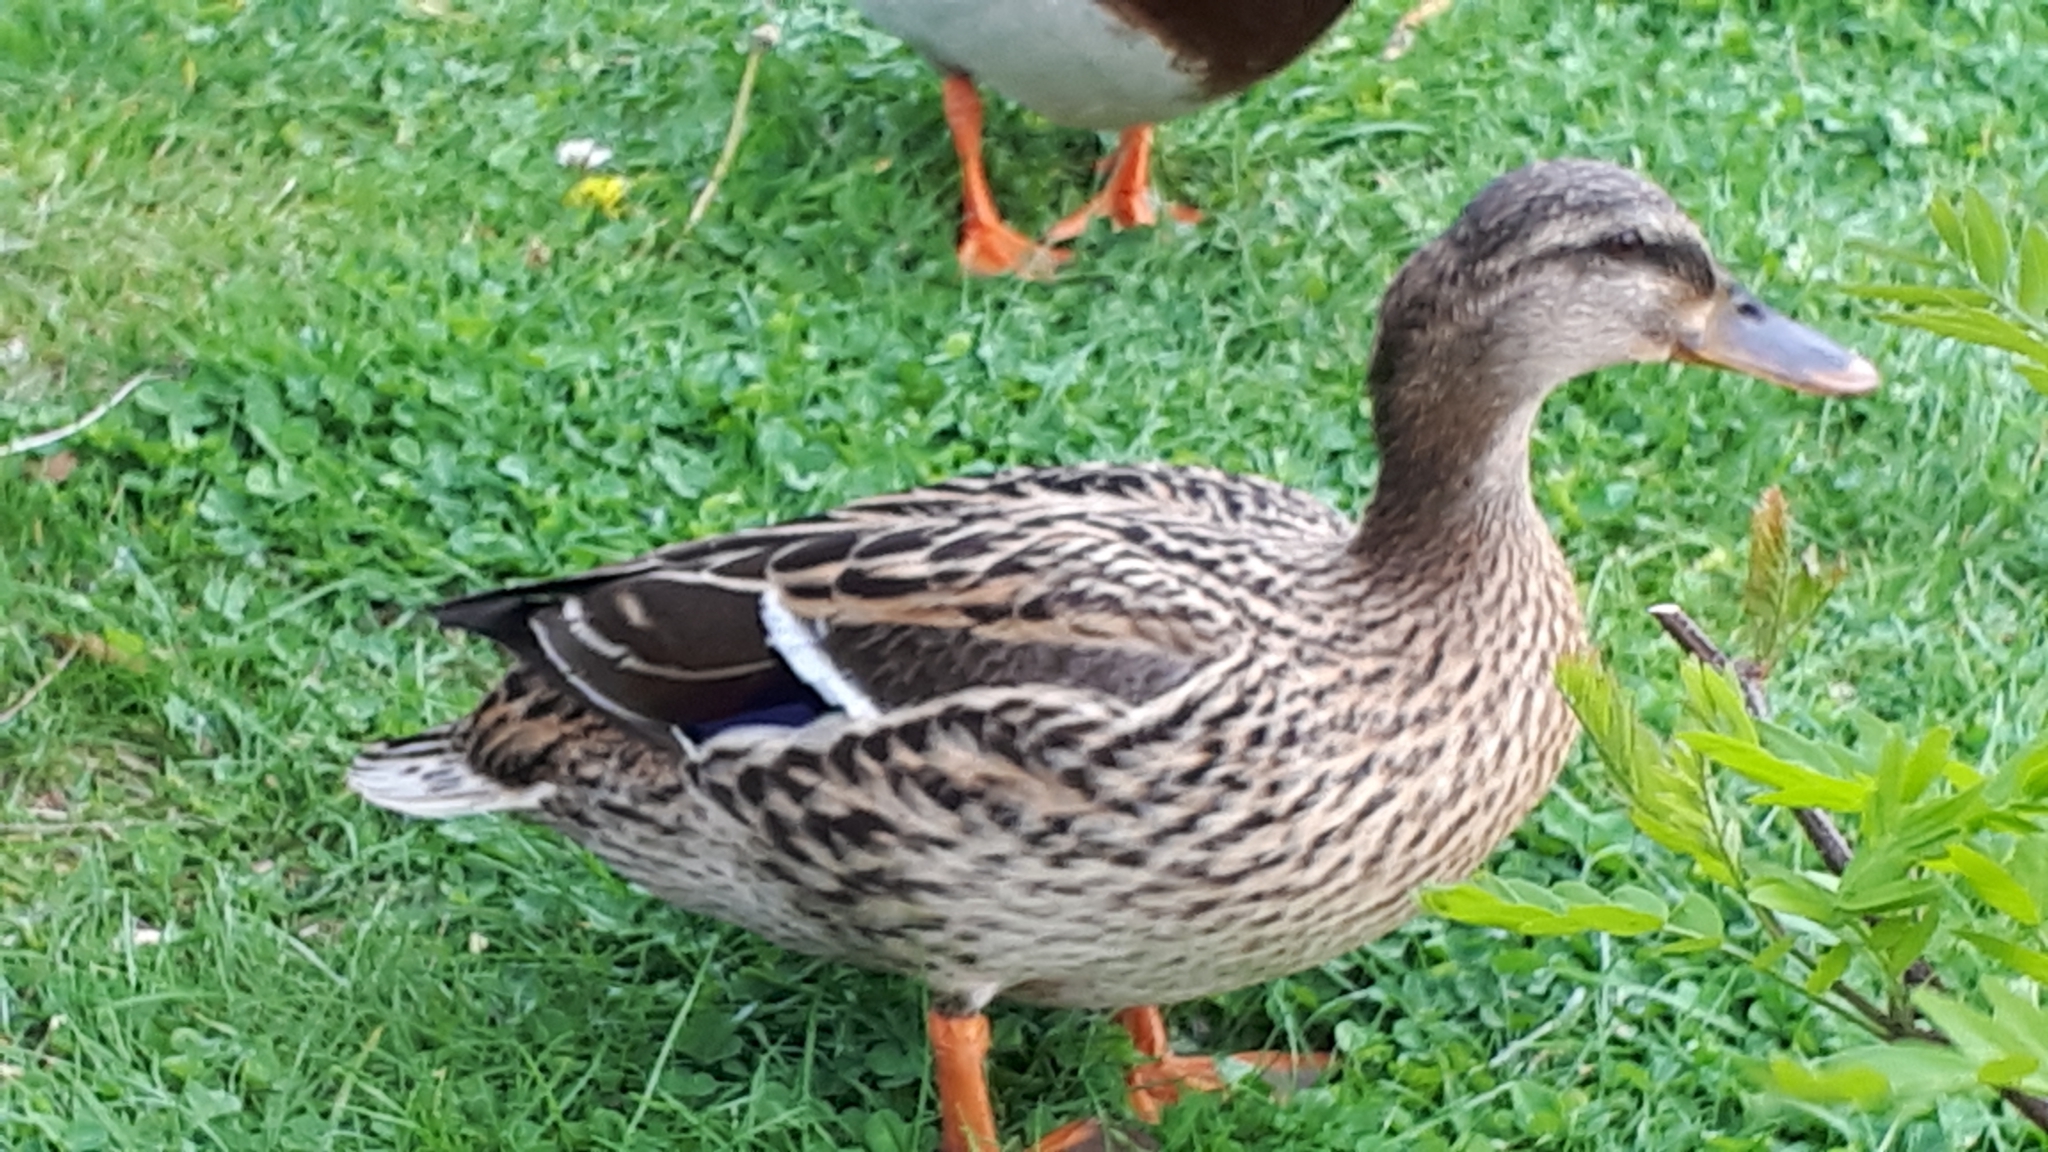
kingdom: Animalia
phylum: Chordata
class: Aves
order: Anseriformes
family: Anatidae
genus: Anas
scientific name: Anas platyrhynchos
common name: Mallard
